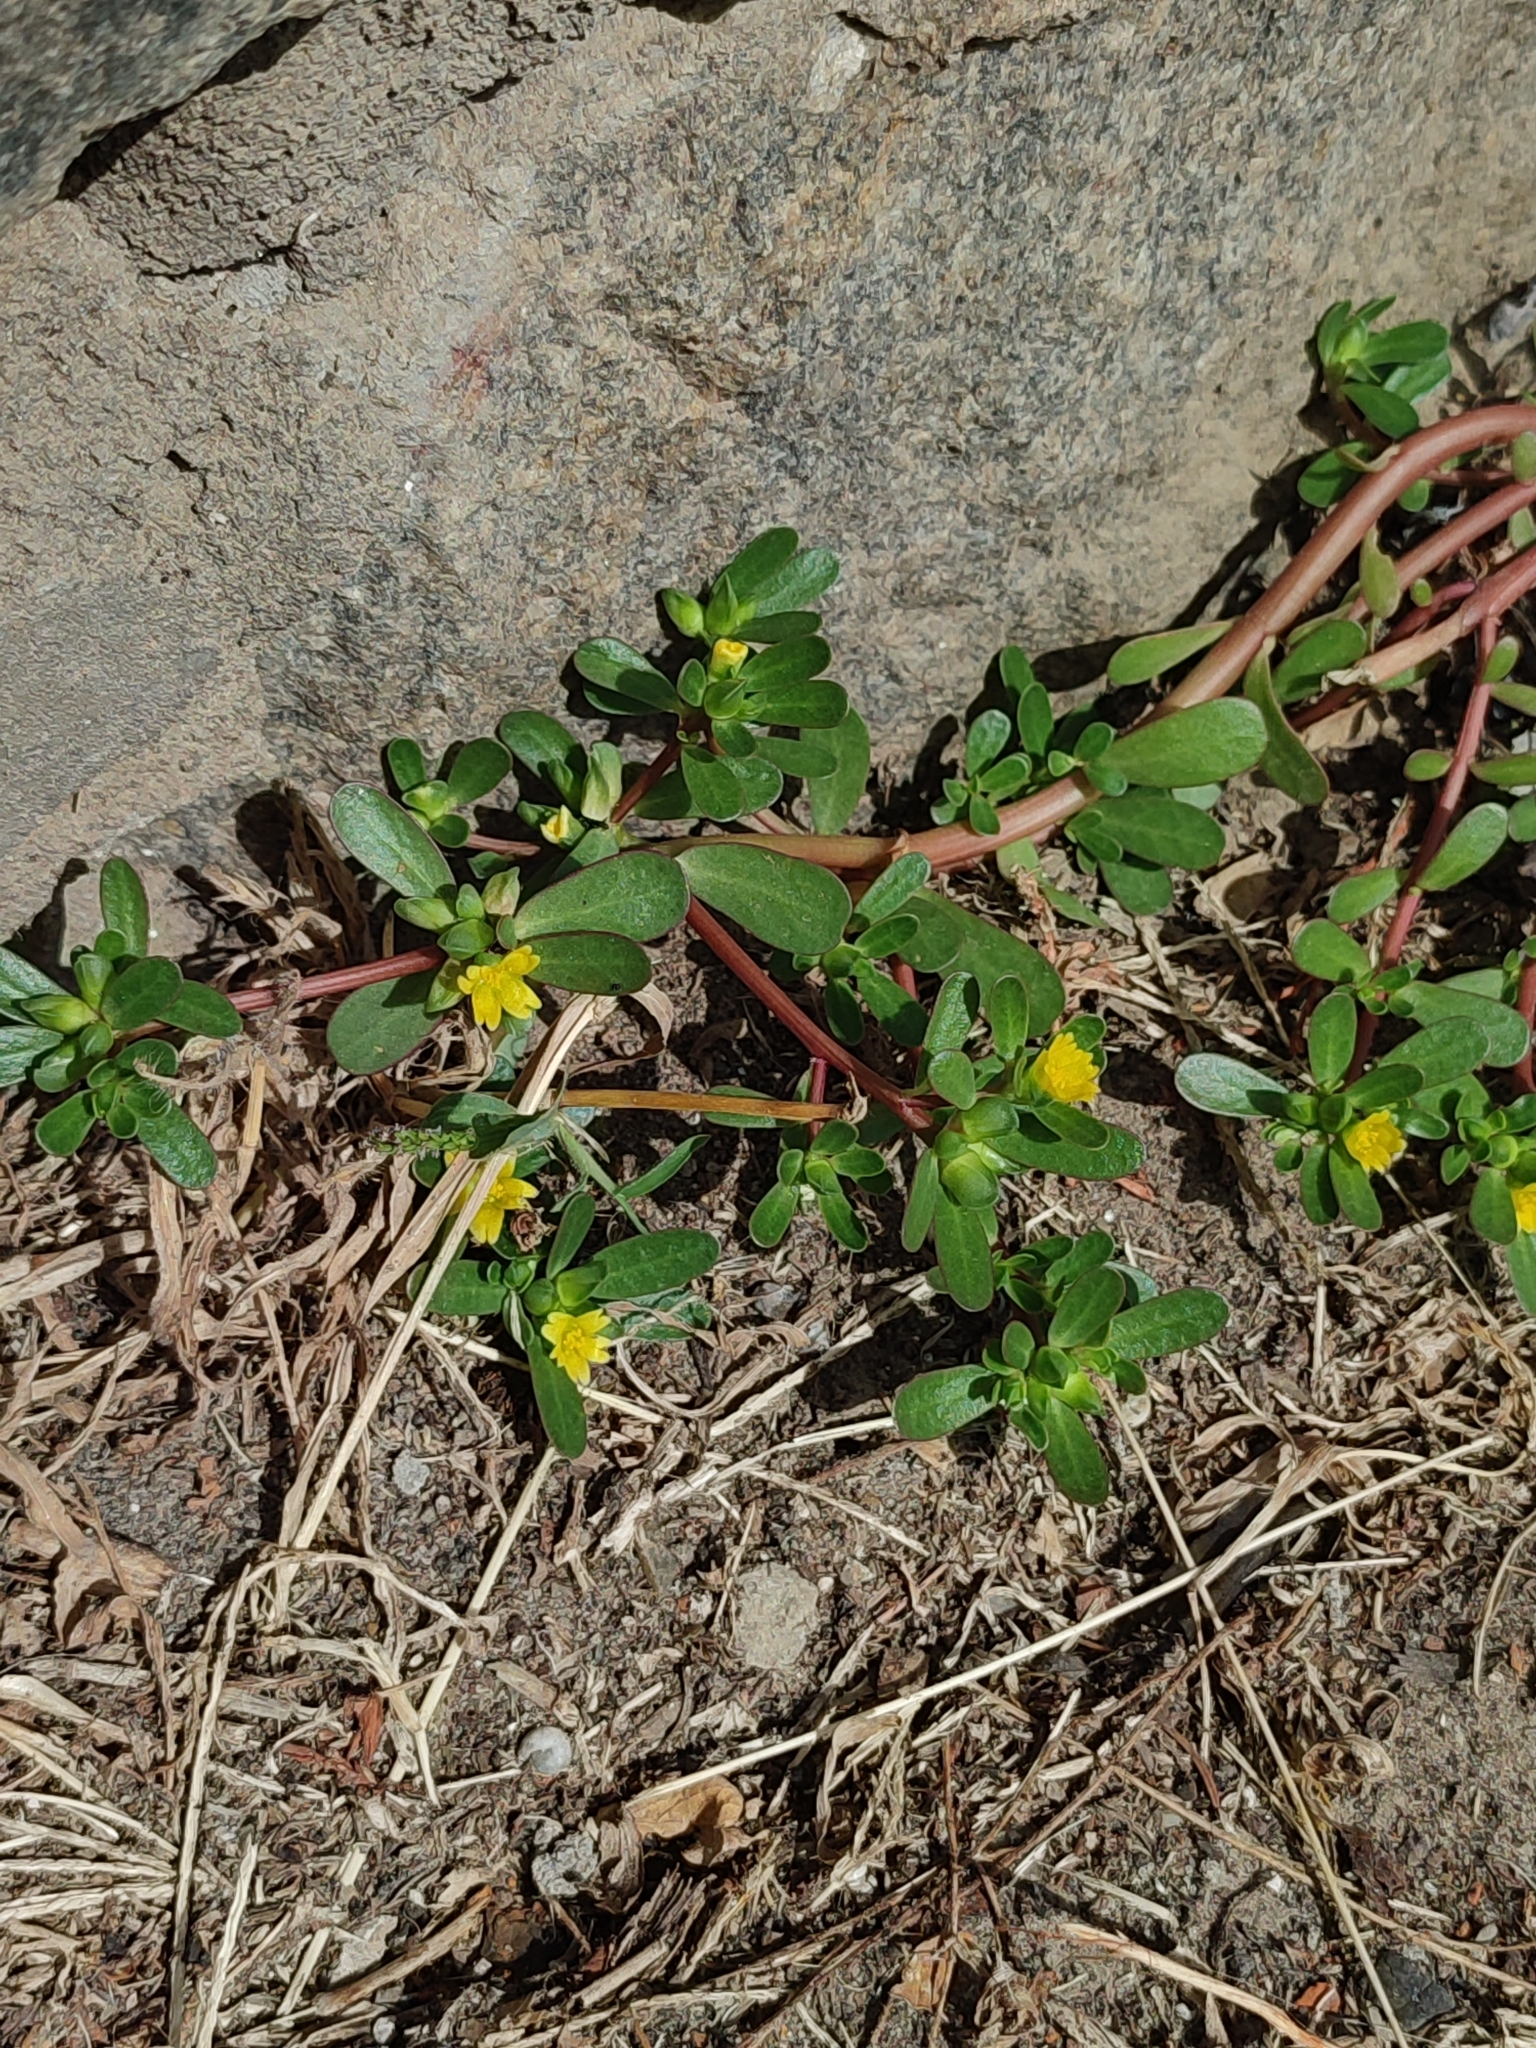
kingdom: Plantae
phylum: Tracheophyta
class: Magnoliopsida
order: Caryophyllales
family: Portulacaceae
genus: Portulaca
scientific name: Portulaca oleracea
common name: Common purslane
